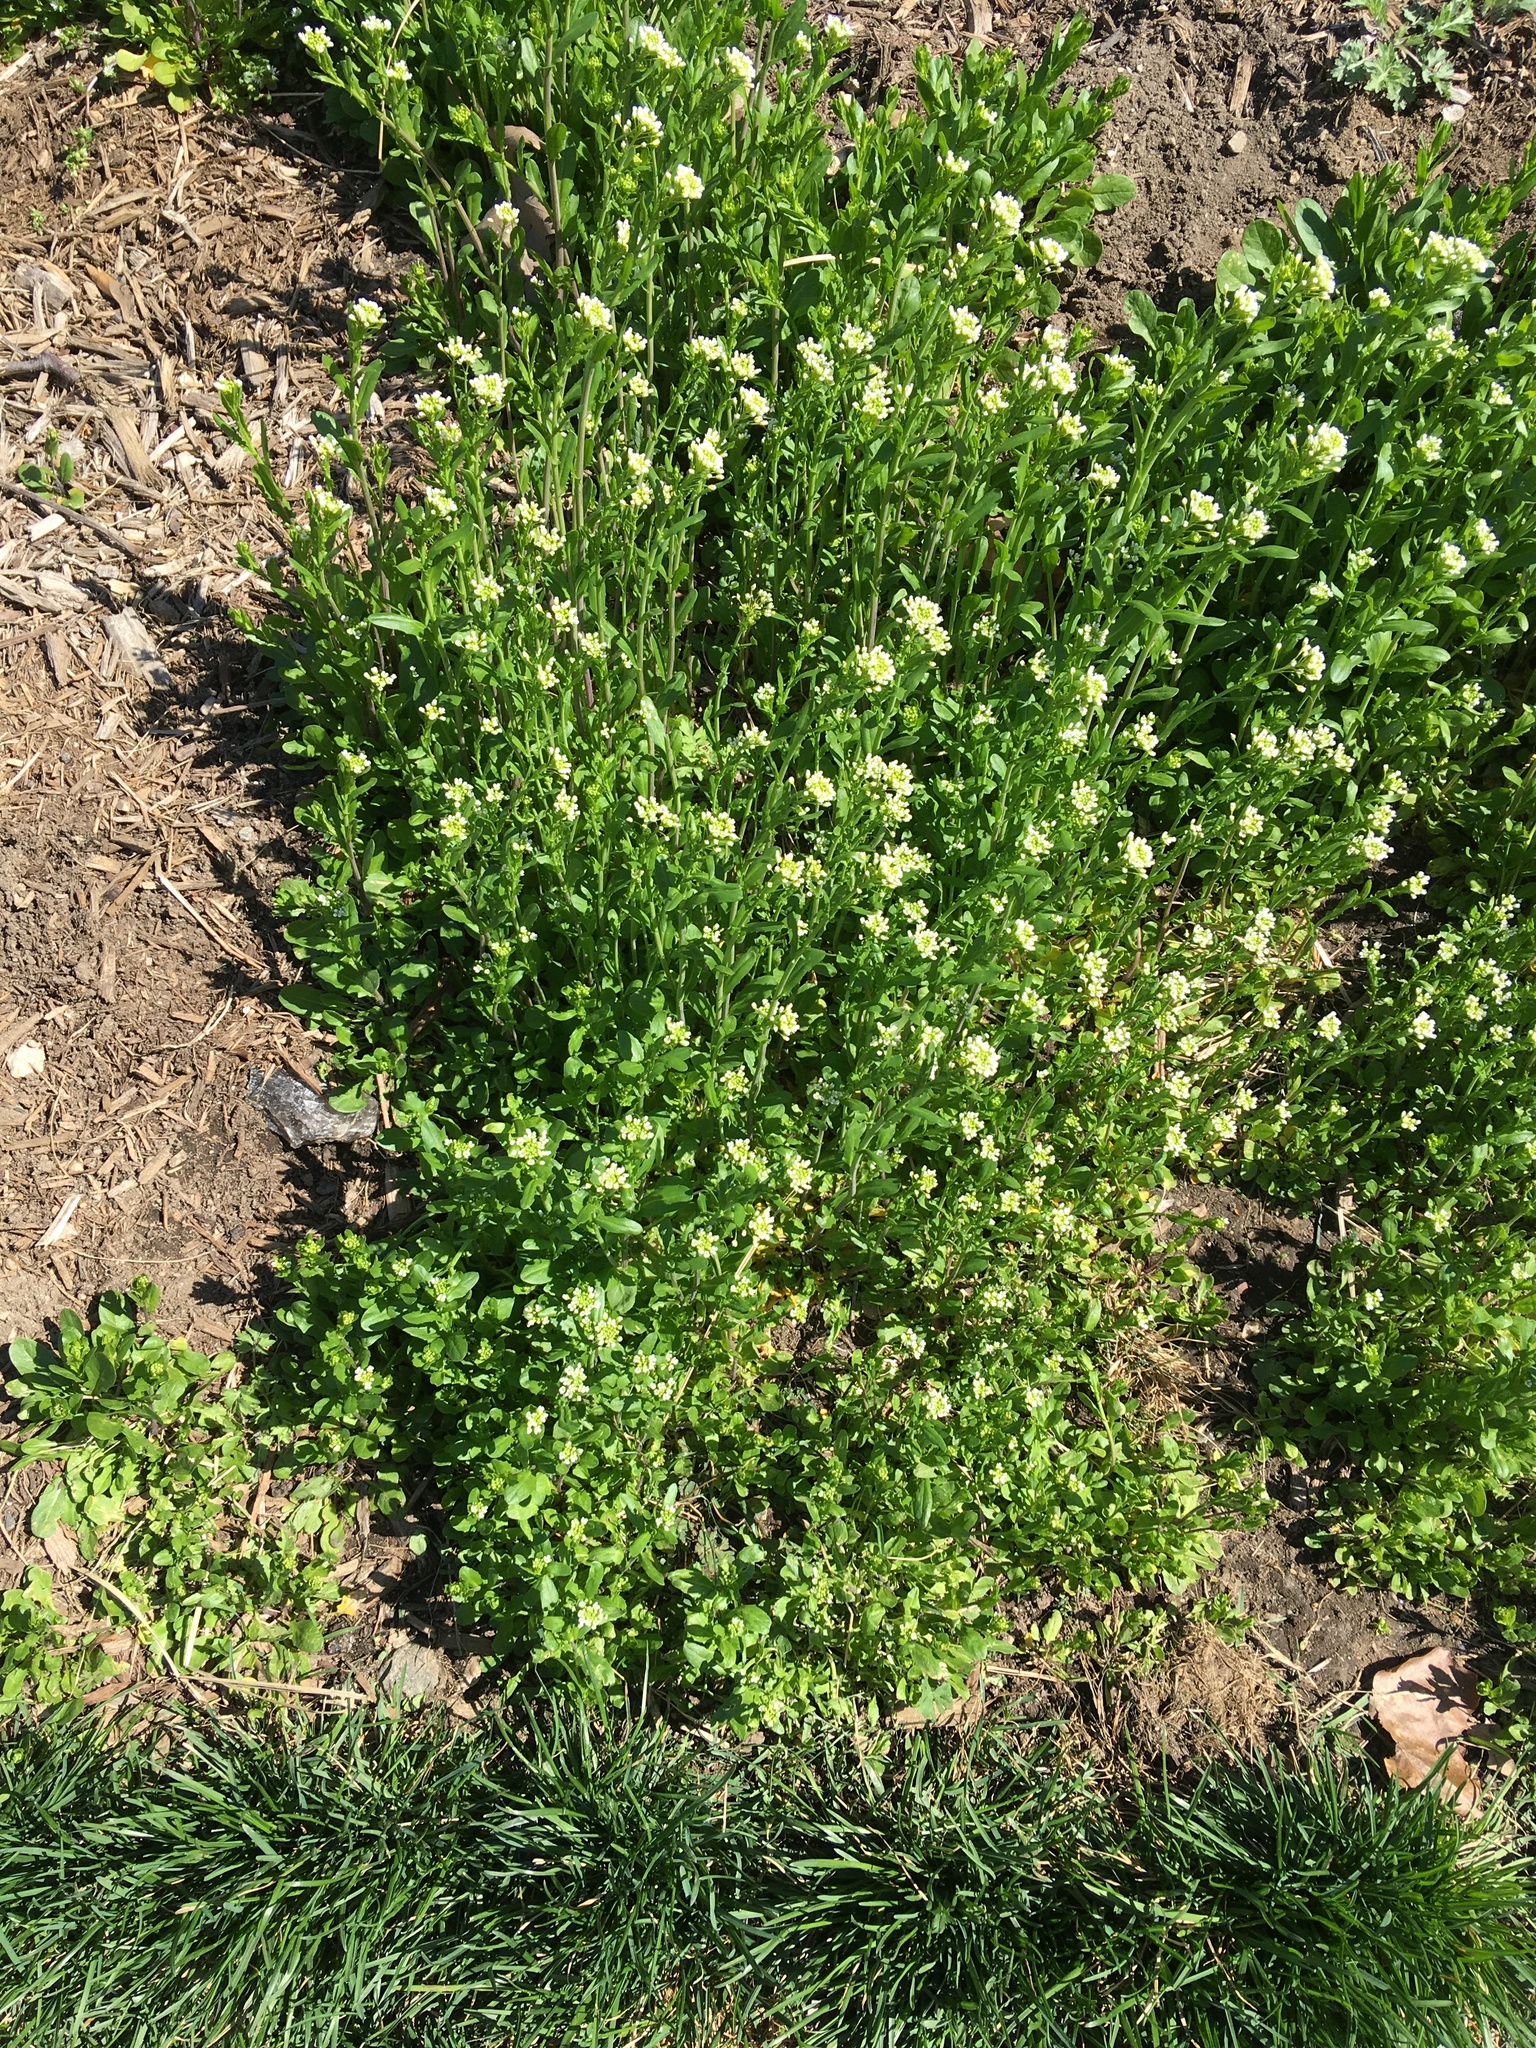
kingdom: Plantae
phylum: Tracheophyta
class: Magnoliopsida
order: Brassicales
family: Brassicaceae
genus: Mummenhoffia
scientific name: Mummenhoffia alliacea
